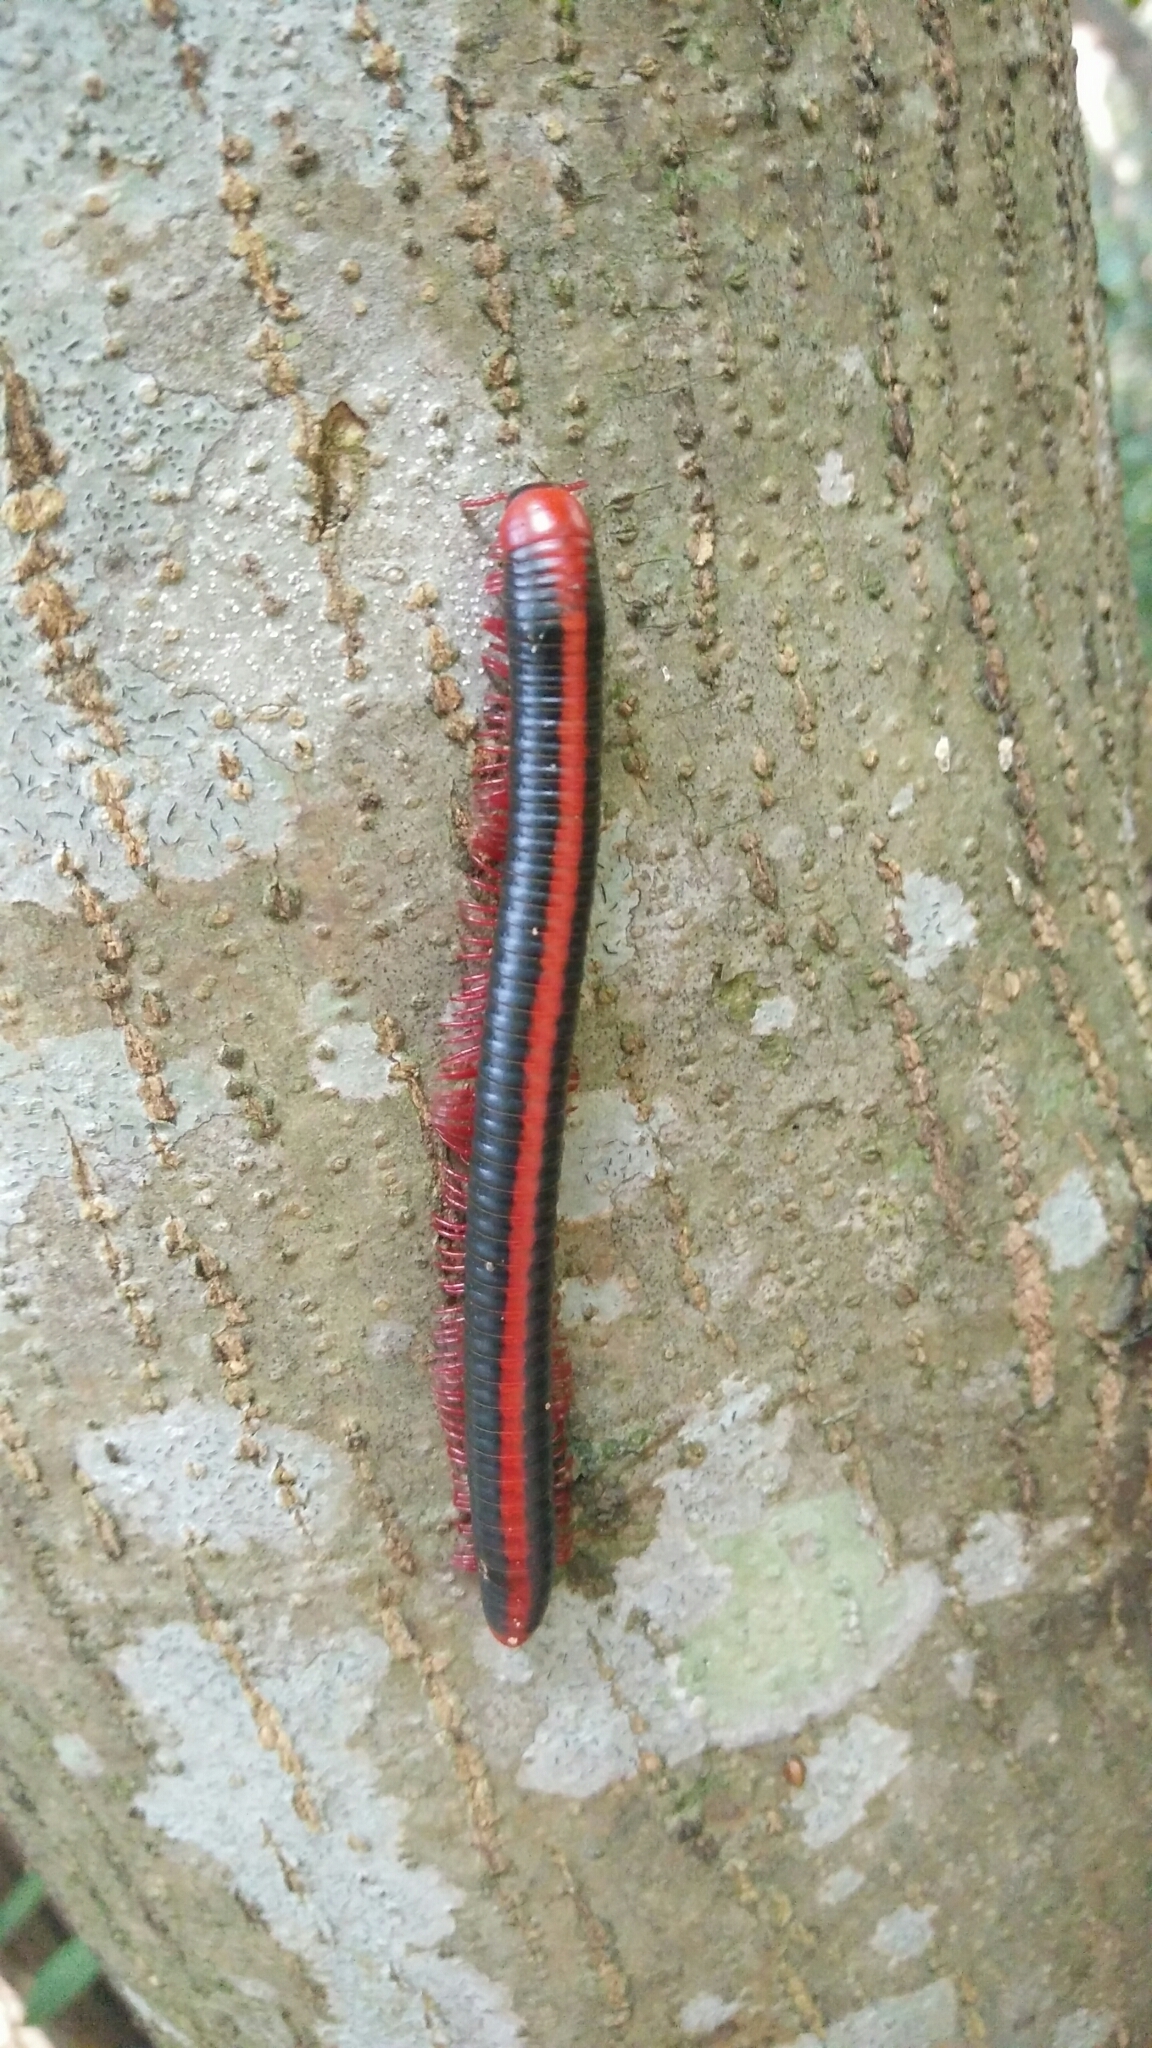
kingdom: Animalia
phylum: Arthropoda
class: Diplopoda
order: Spirobolida
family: Pachybolidae
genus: Xenobolus
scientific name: Xenobolus carnifex
